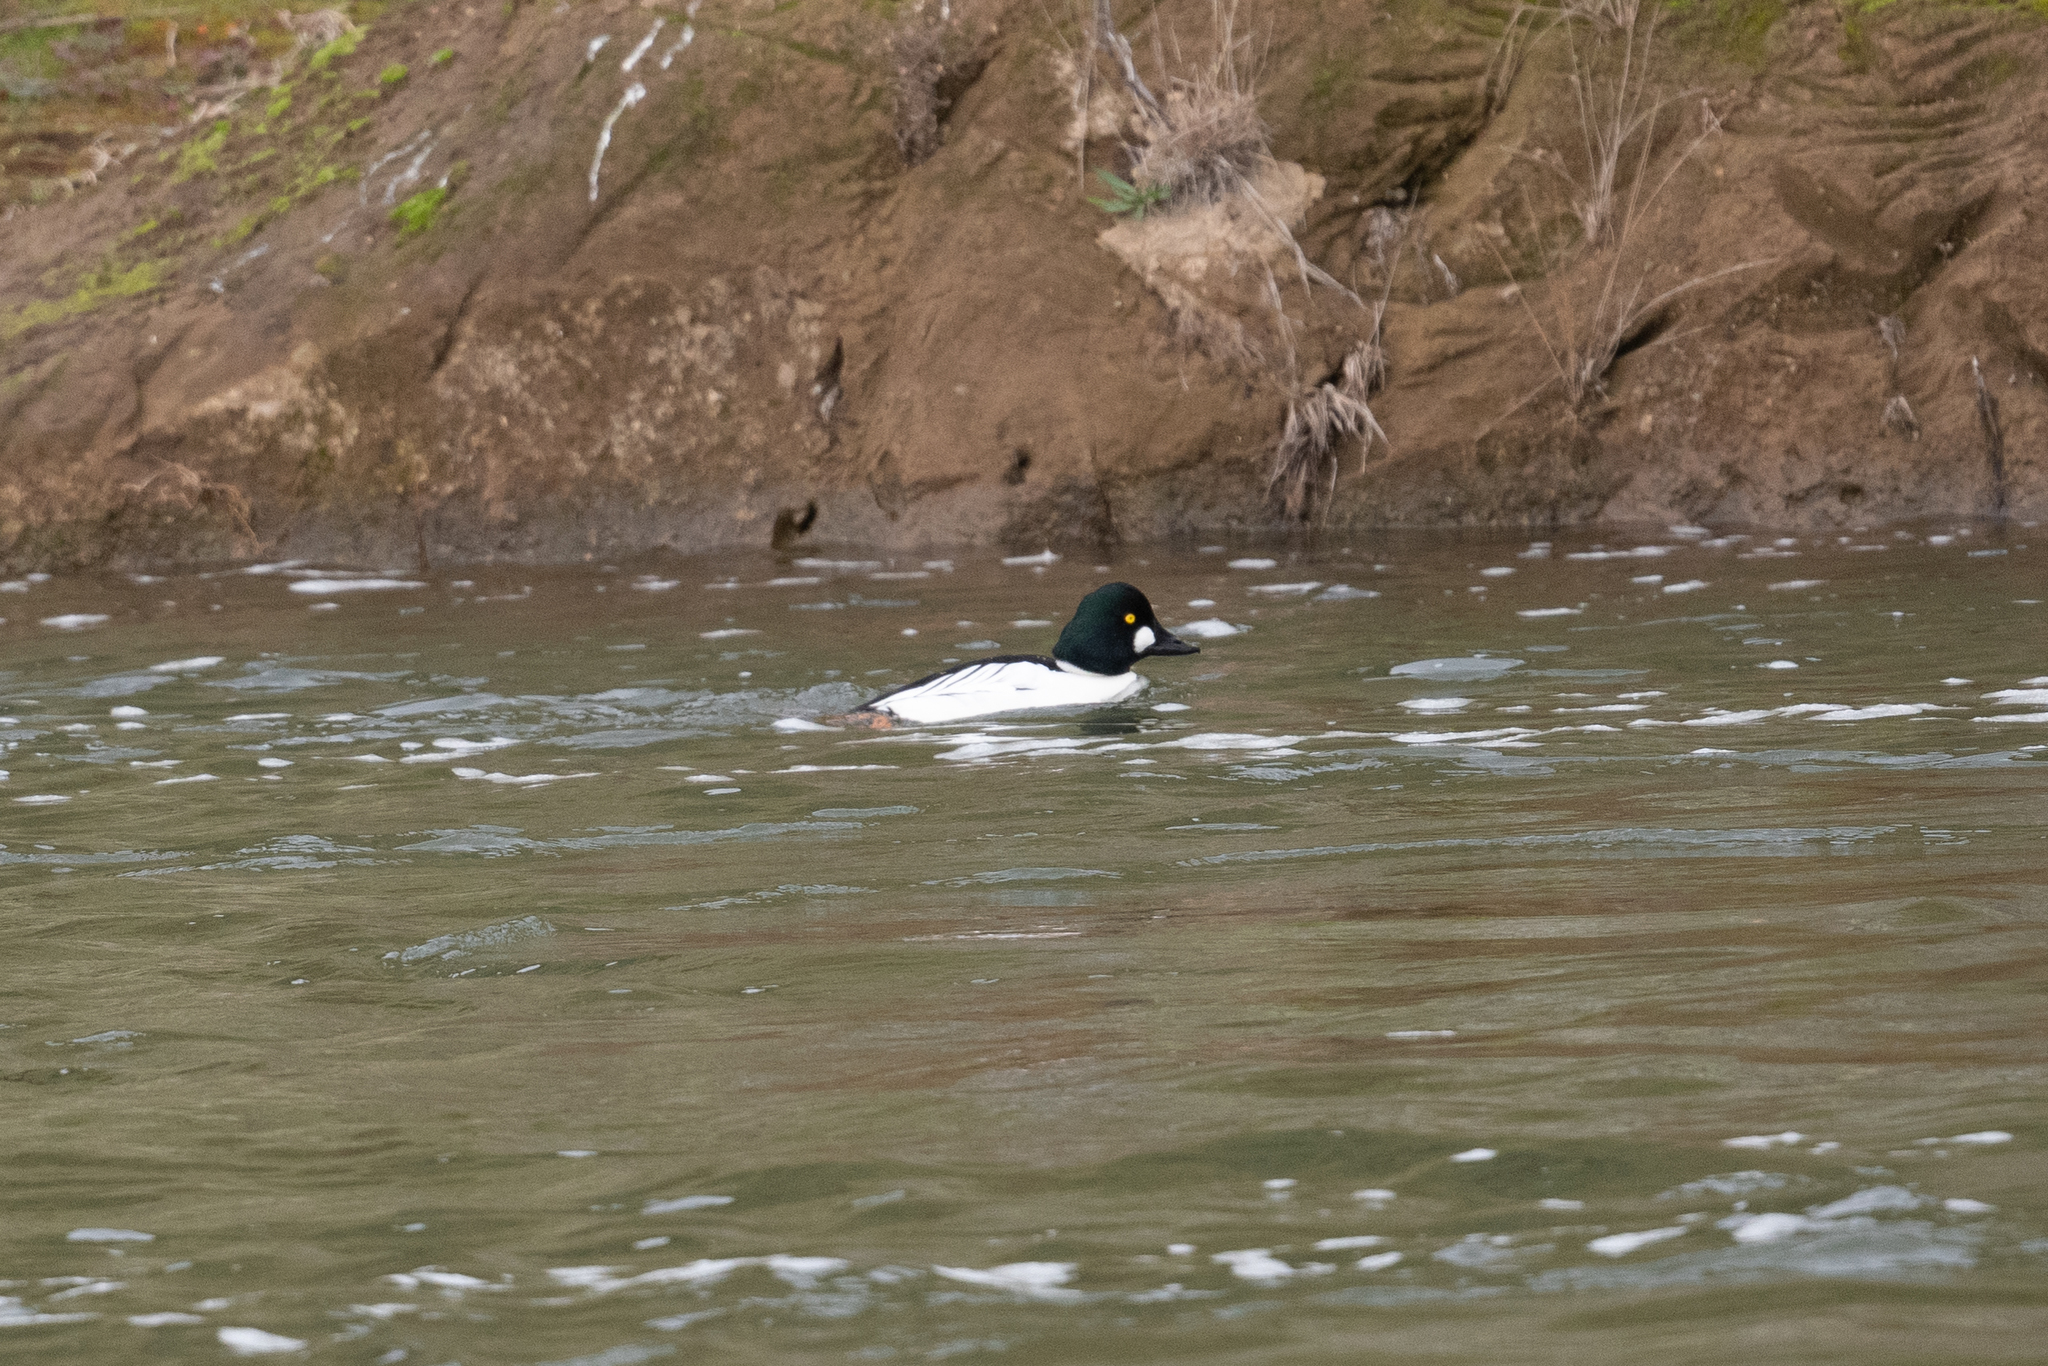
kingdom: Animalia
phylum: Chordata
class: Aves
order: Anseriformes
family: Anatidae
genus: Bucephala
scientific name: Bucephala clangula
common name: Common goldeneye
